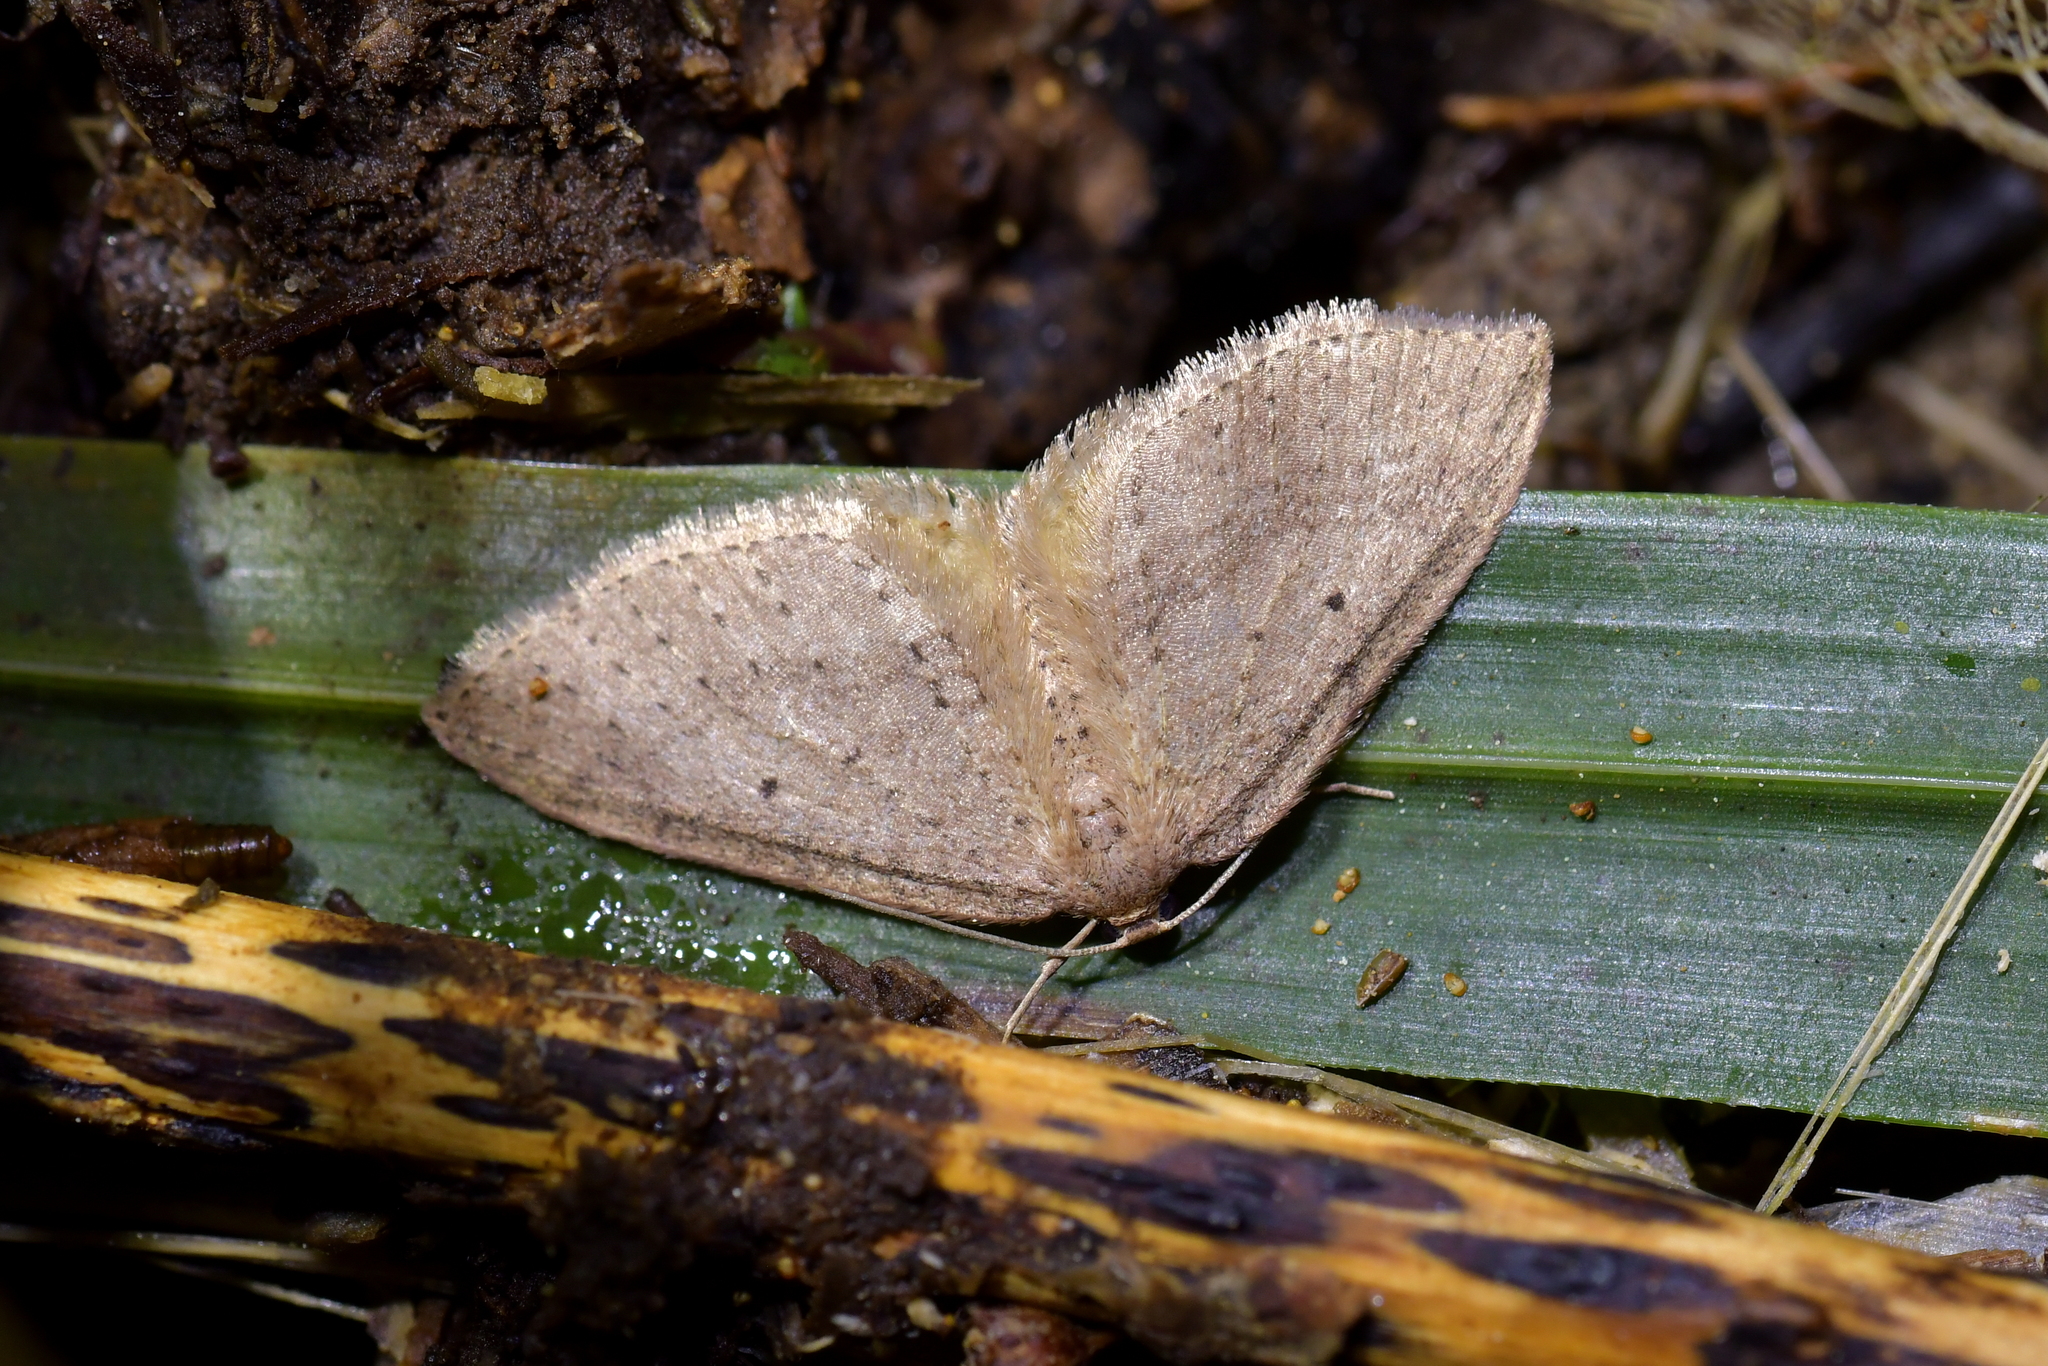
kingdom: Animalia
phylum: Arthropoda
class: Insecta
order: Lepidoptera
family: Geometridae
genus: Poecilasthena
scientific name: Poecilasthena schistaria
